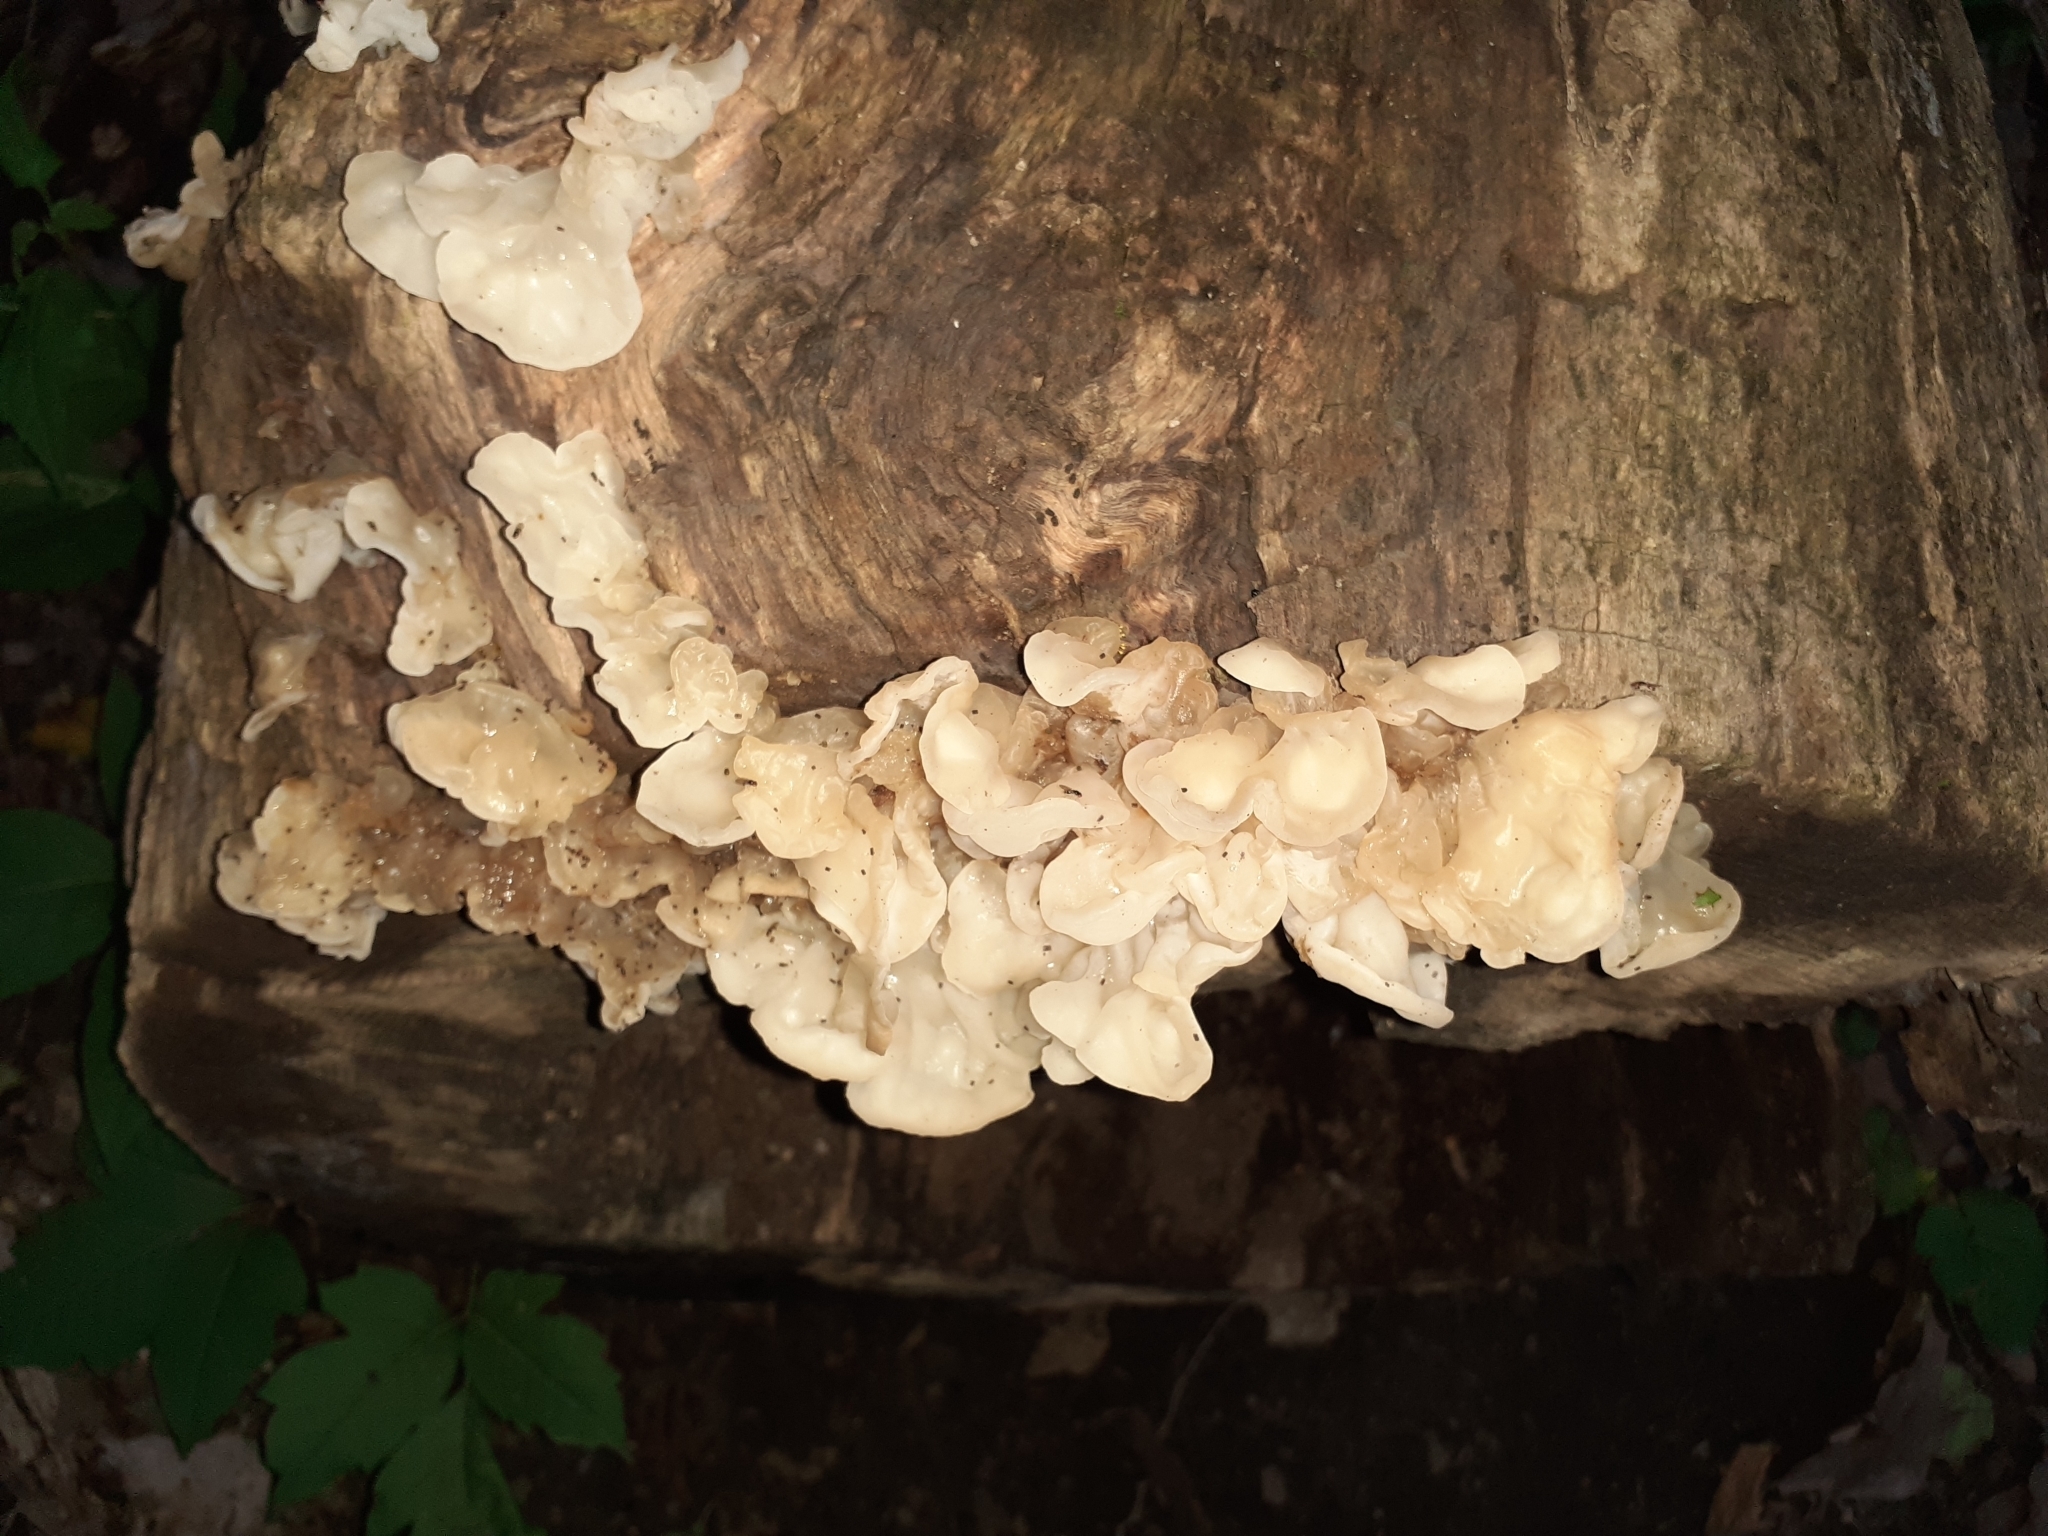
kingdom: Fungi
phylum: Basidiomycota
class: Agaricomycetes
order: Auriculariales
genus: Ductifera
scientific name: Ductifera pululahuana
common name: White jelly fungus
